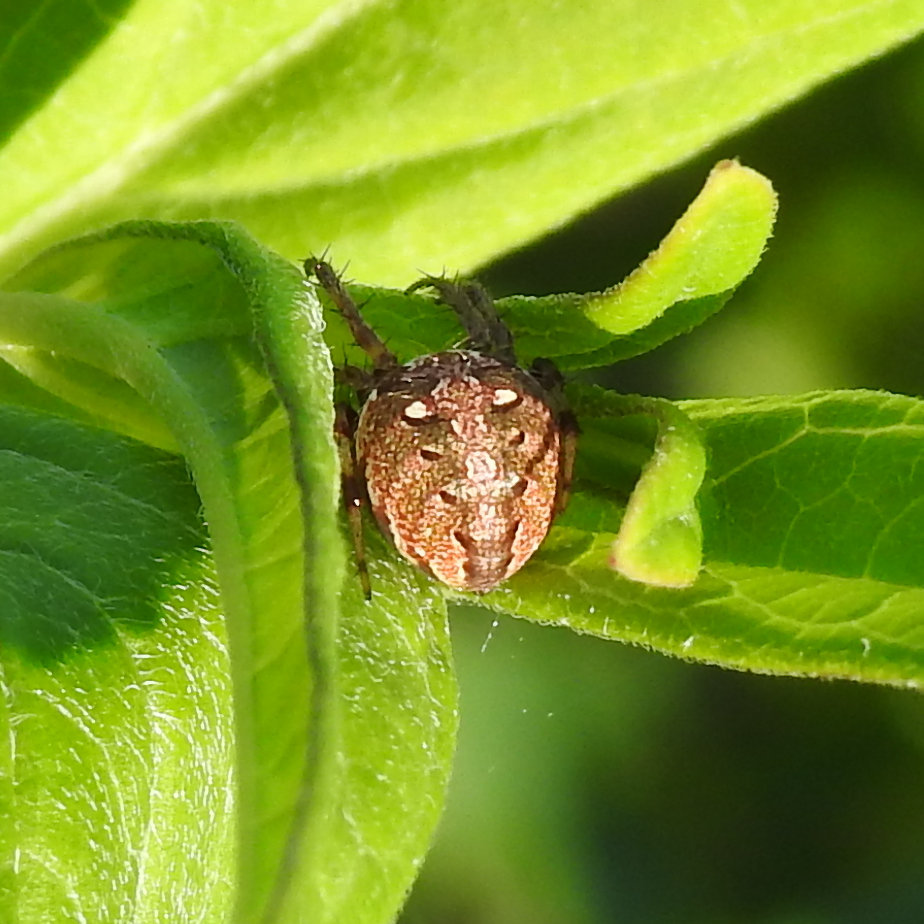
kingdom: Animalia
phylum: Arthropoda
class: Arachnida
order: Araneae
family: Araneidae
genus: Neoscona
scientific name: Neoscona arabesca
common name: Orb weavers
